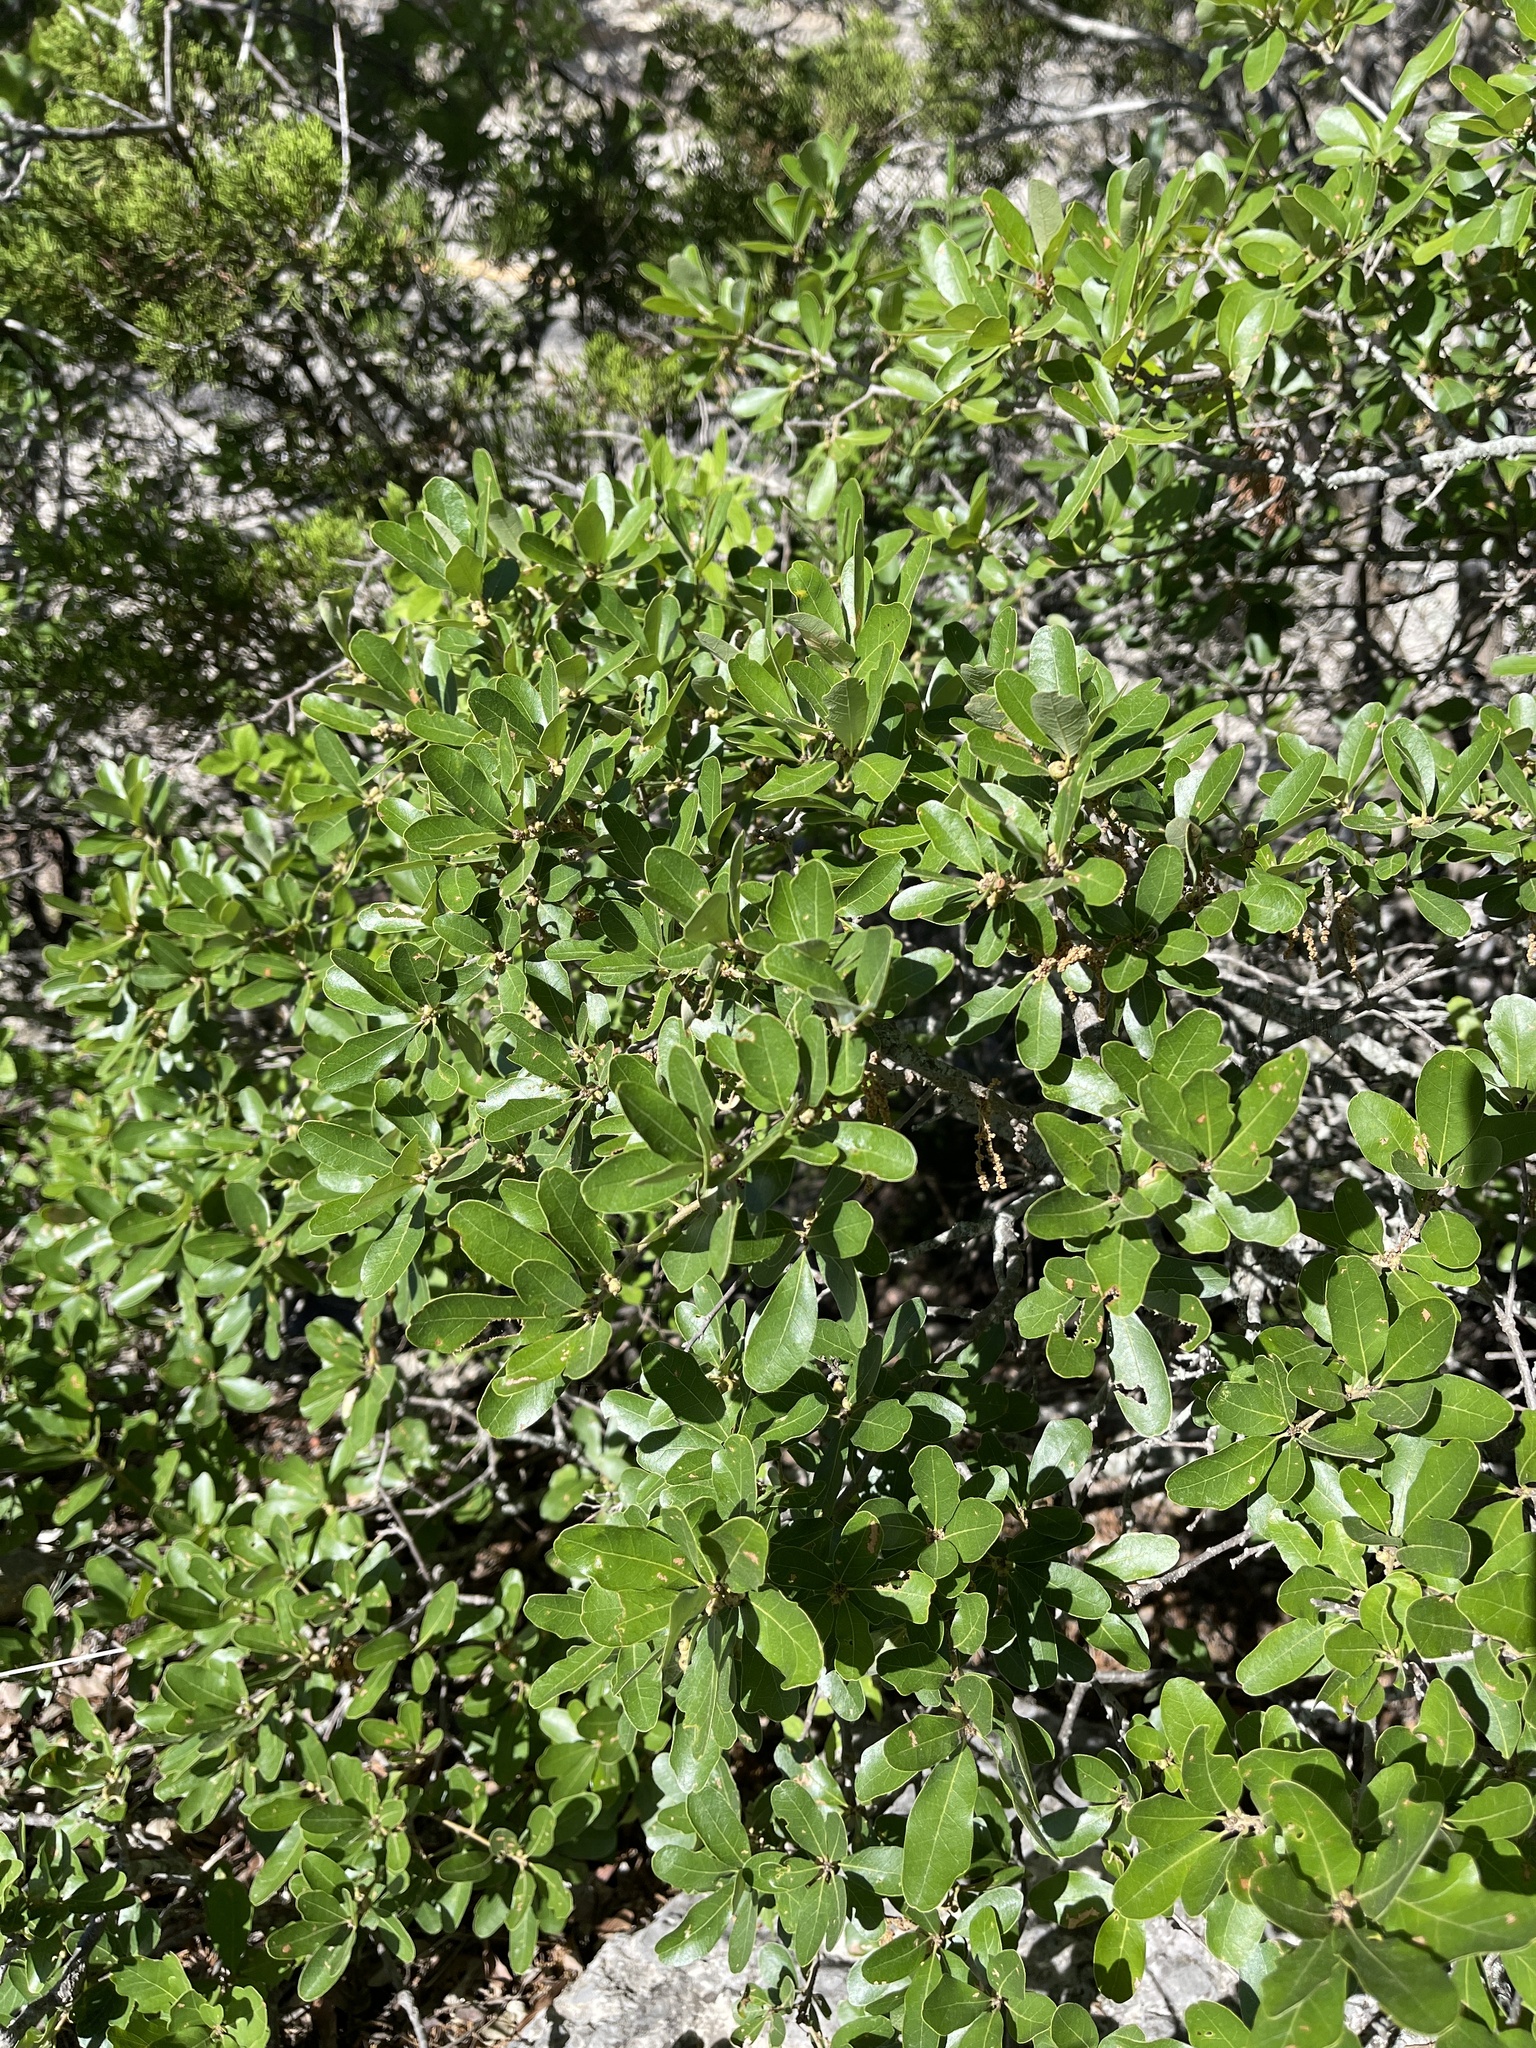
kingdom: Plantae
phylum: Tracheophyta
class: Magnoliopsida
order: Fagales
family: Fagaceae
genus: Quercus
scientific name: Quercus sinuata
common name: Durand oak
